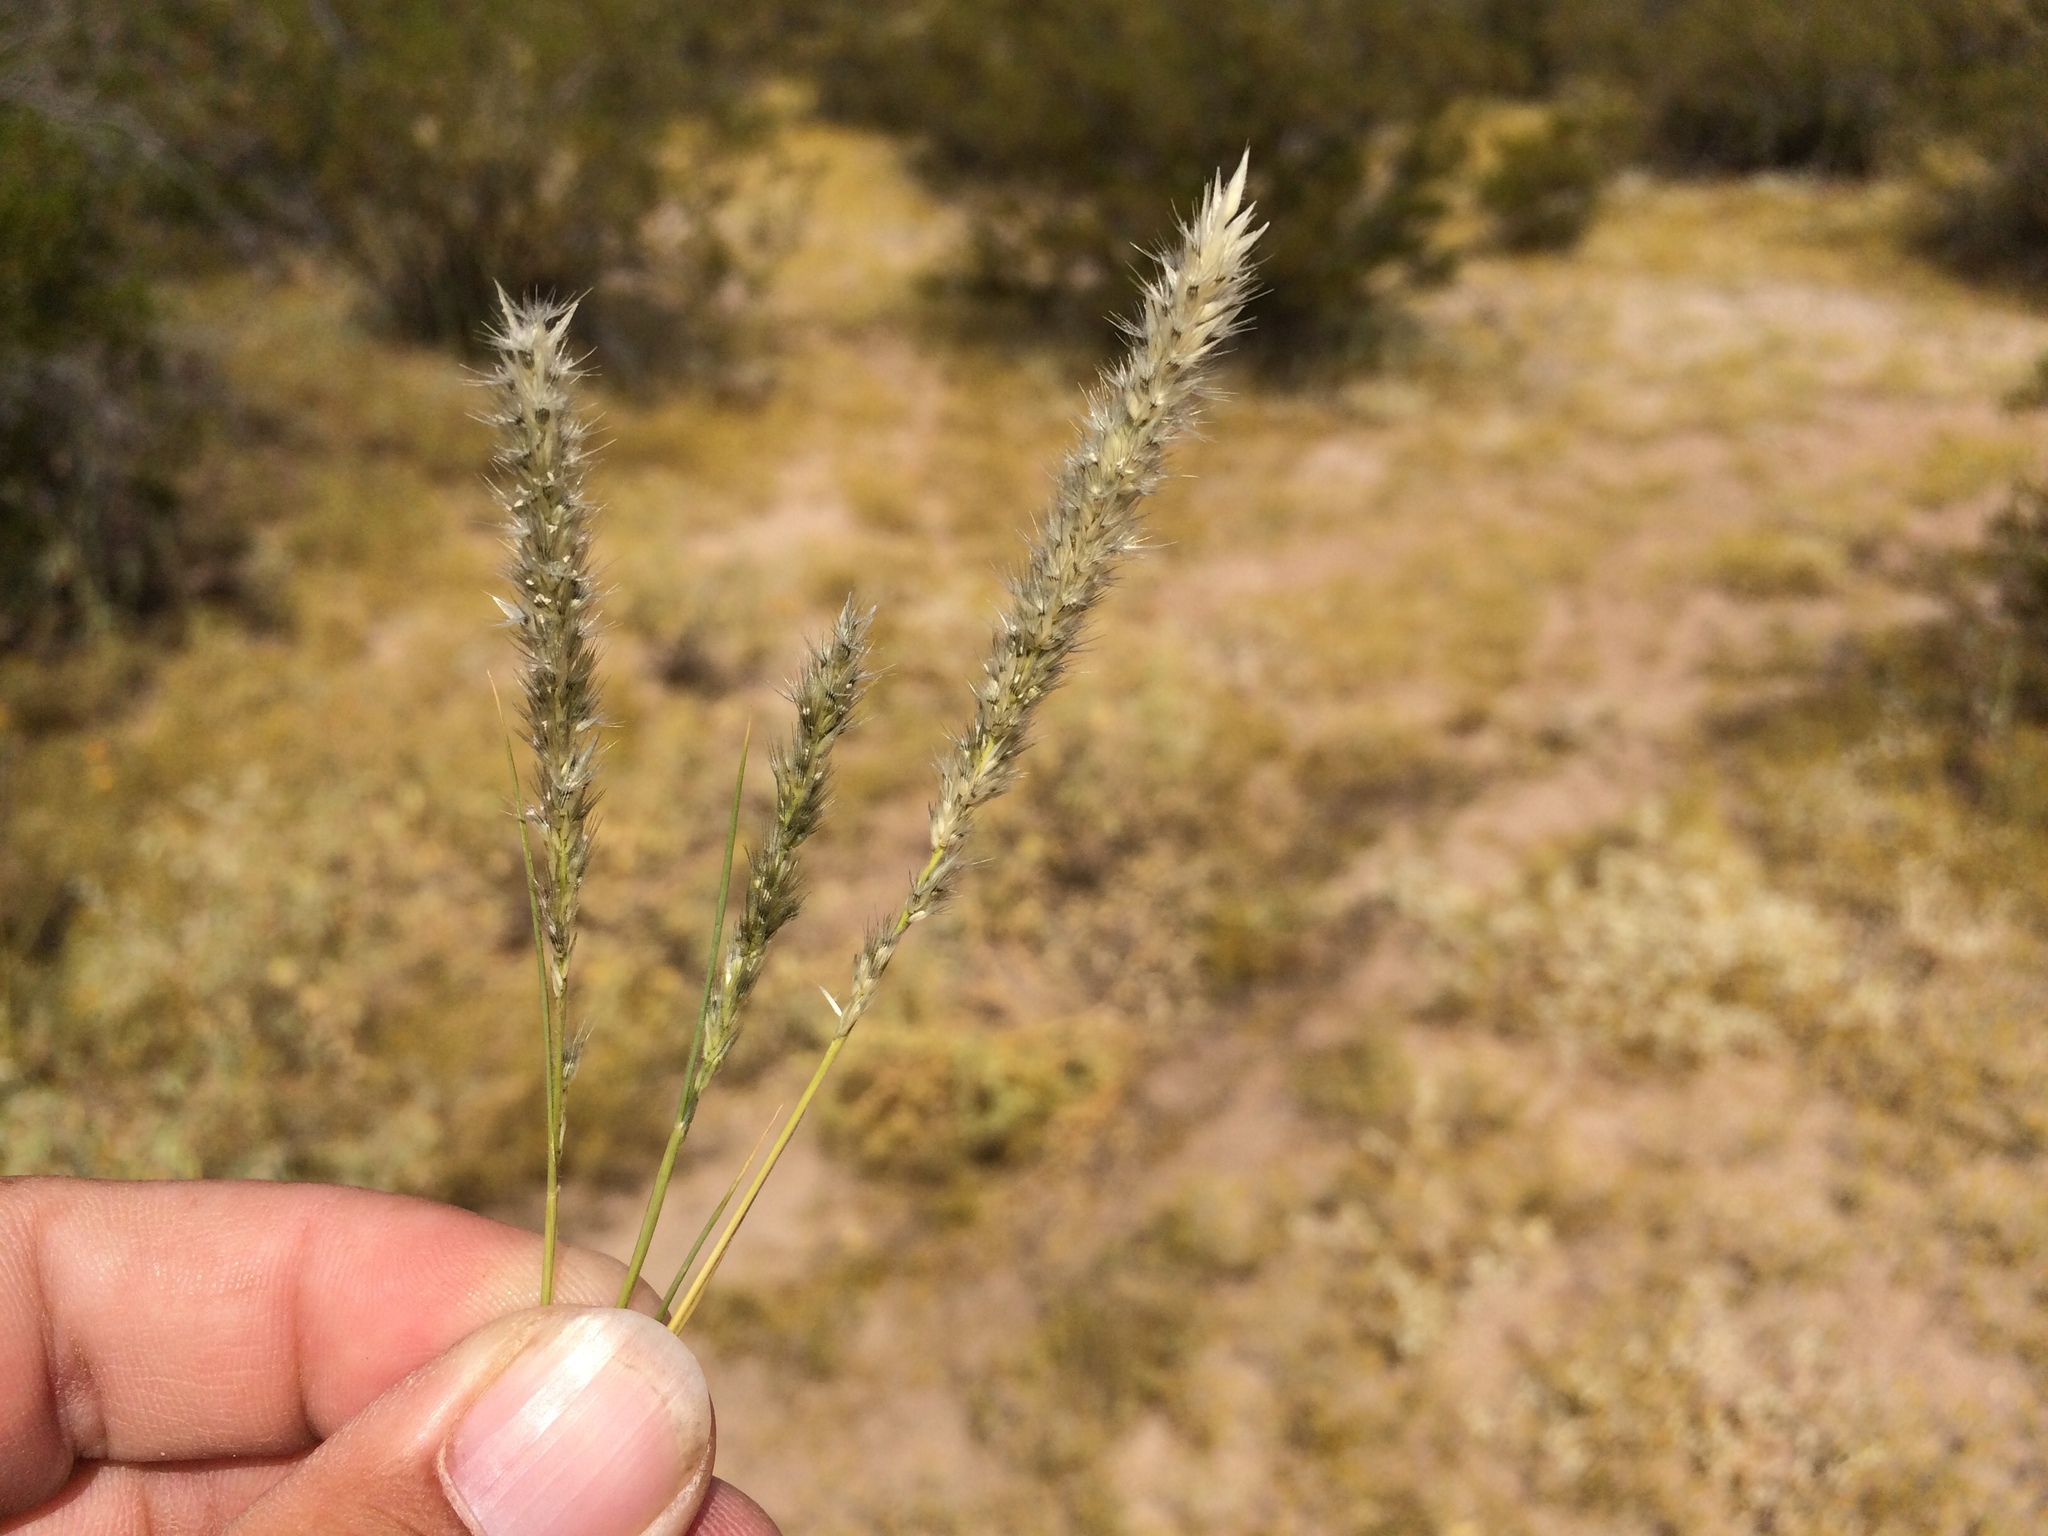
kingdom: Plantae
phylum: Tracheophyta
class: Liliopsida
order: Poales
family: Poaceae
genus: Enneapogon
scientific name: Enneapogon desvauxii
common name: Feather pappus grass
